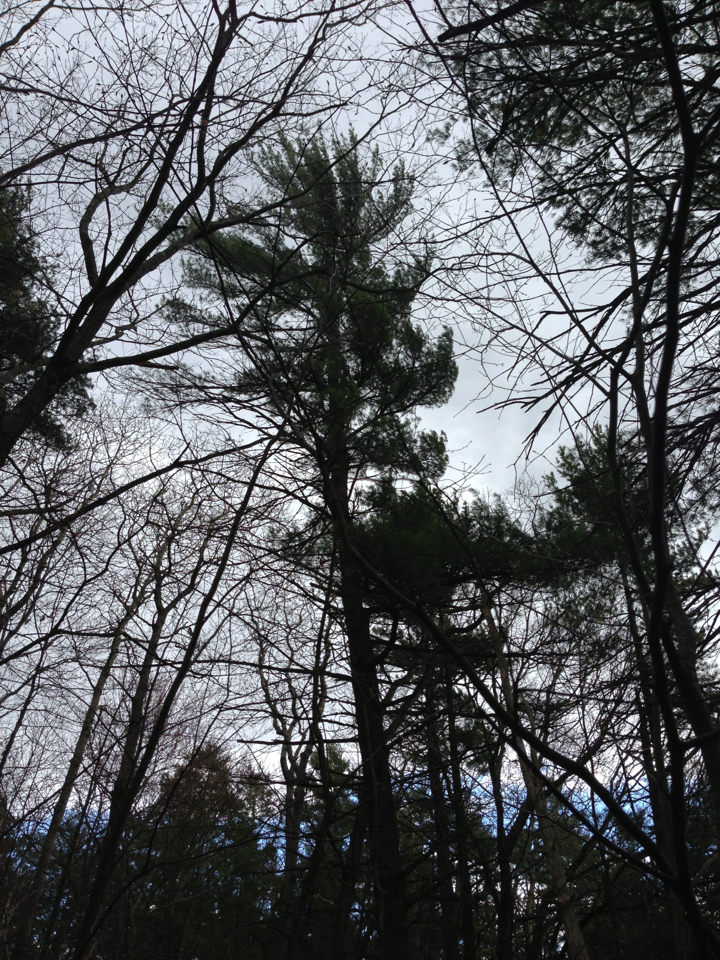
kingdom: Plantae
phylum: Tracheophyta
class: Pinopsida
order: Pinales
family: Pinaceae
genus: Pinus
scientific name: Pinus strobus
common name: Weymouth pine
